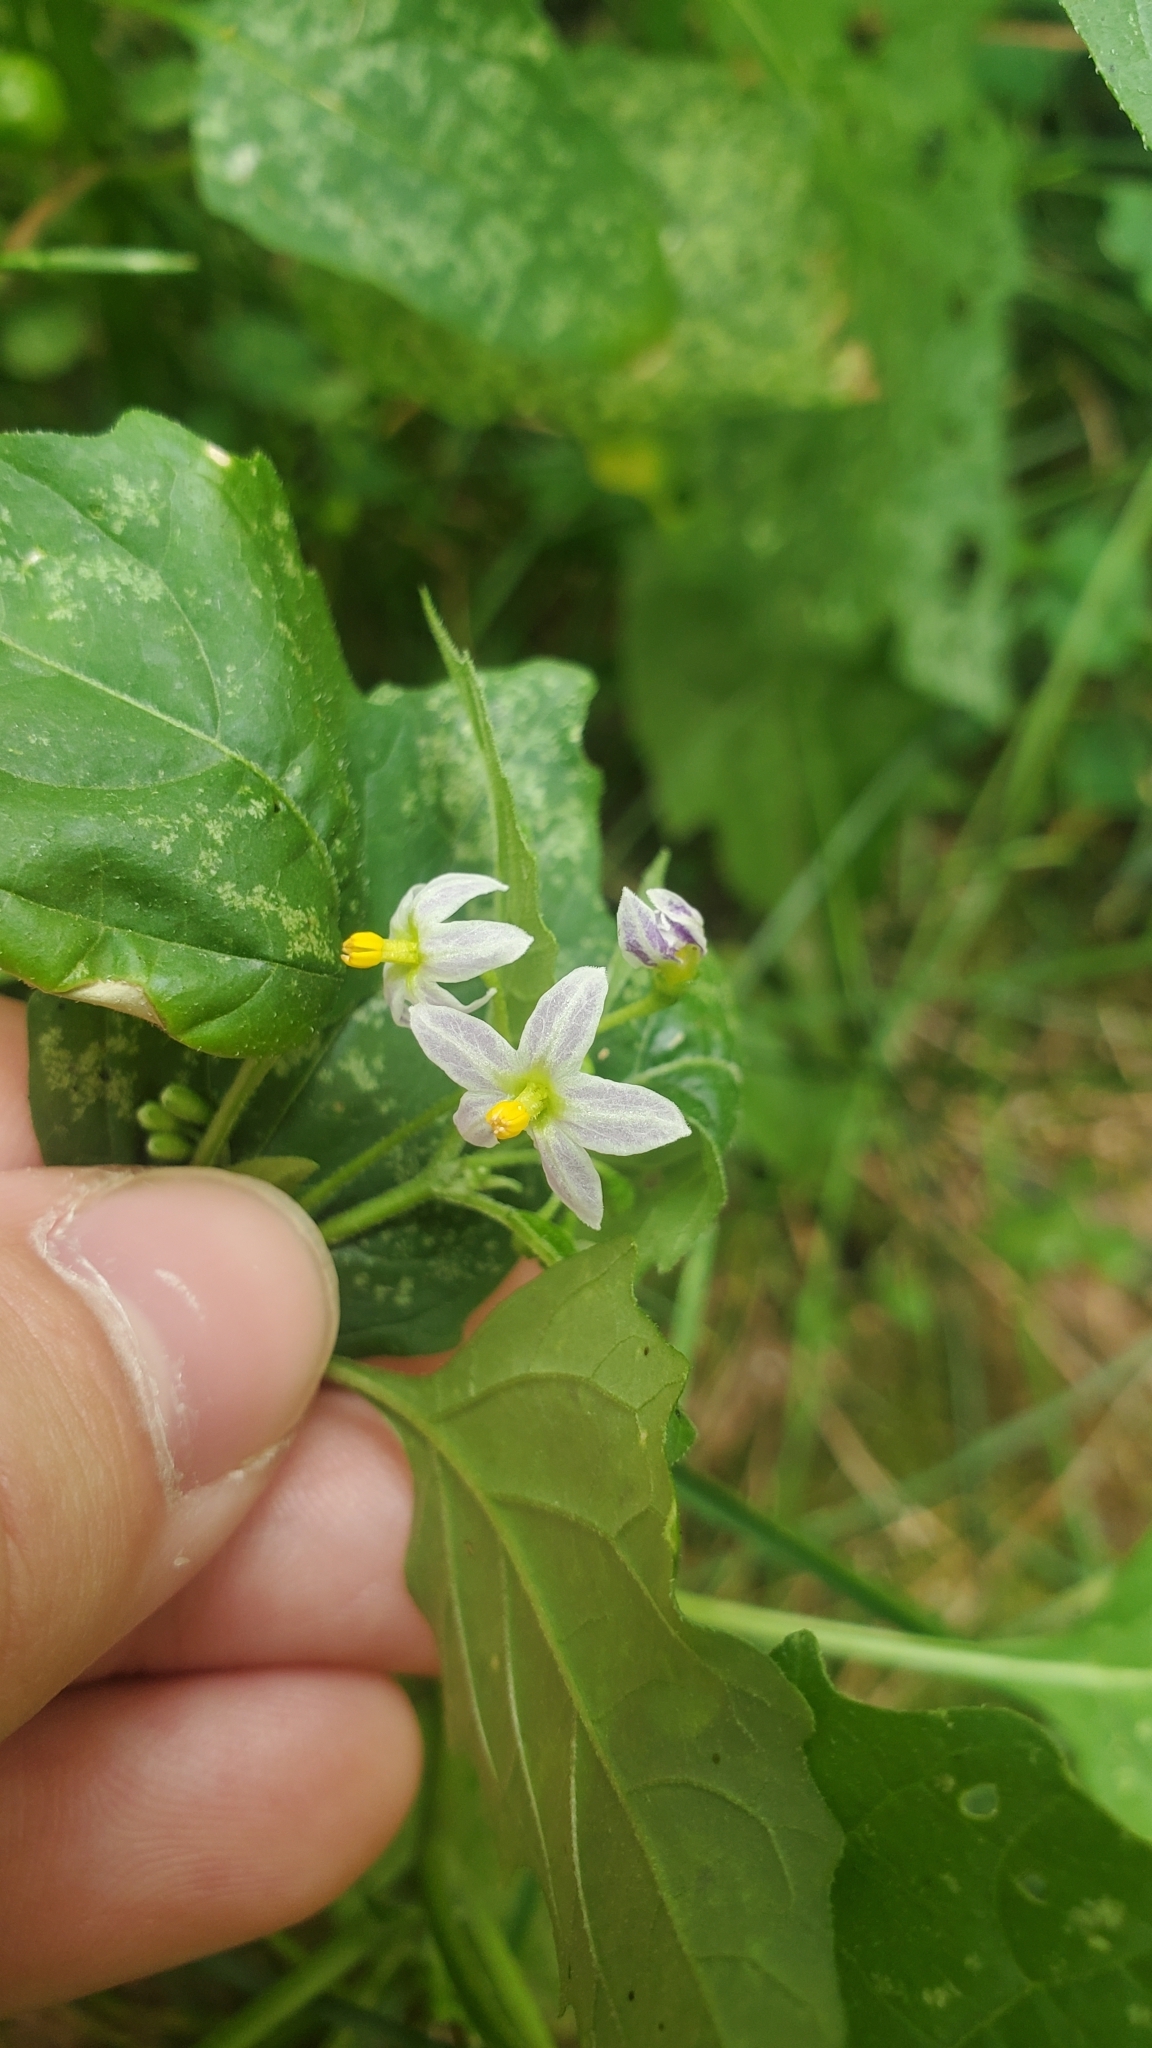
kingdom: Plantae
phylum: Tracheophyta
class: Magnoliopsida
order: Solanales
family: Solanaceae
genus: Solanum
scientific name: Solanum emulans
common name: Eastern black nightshade
